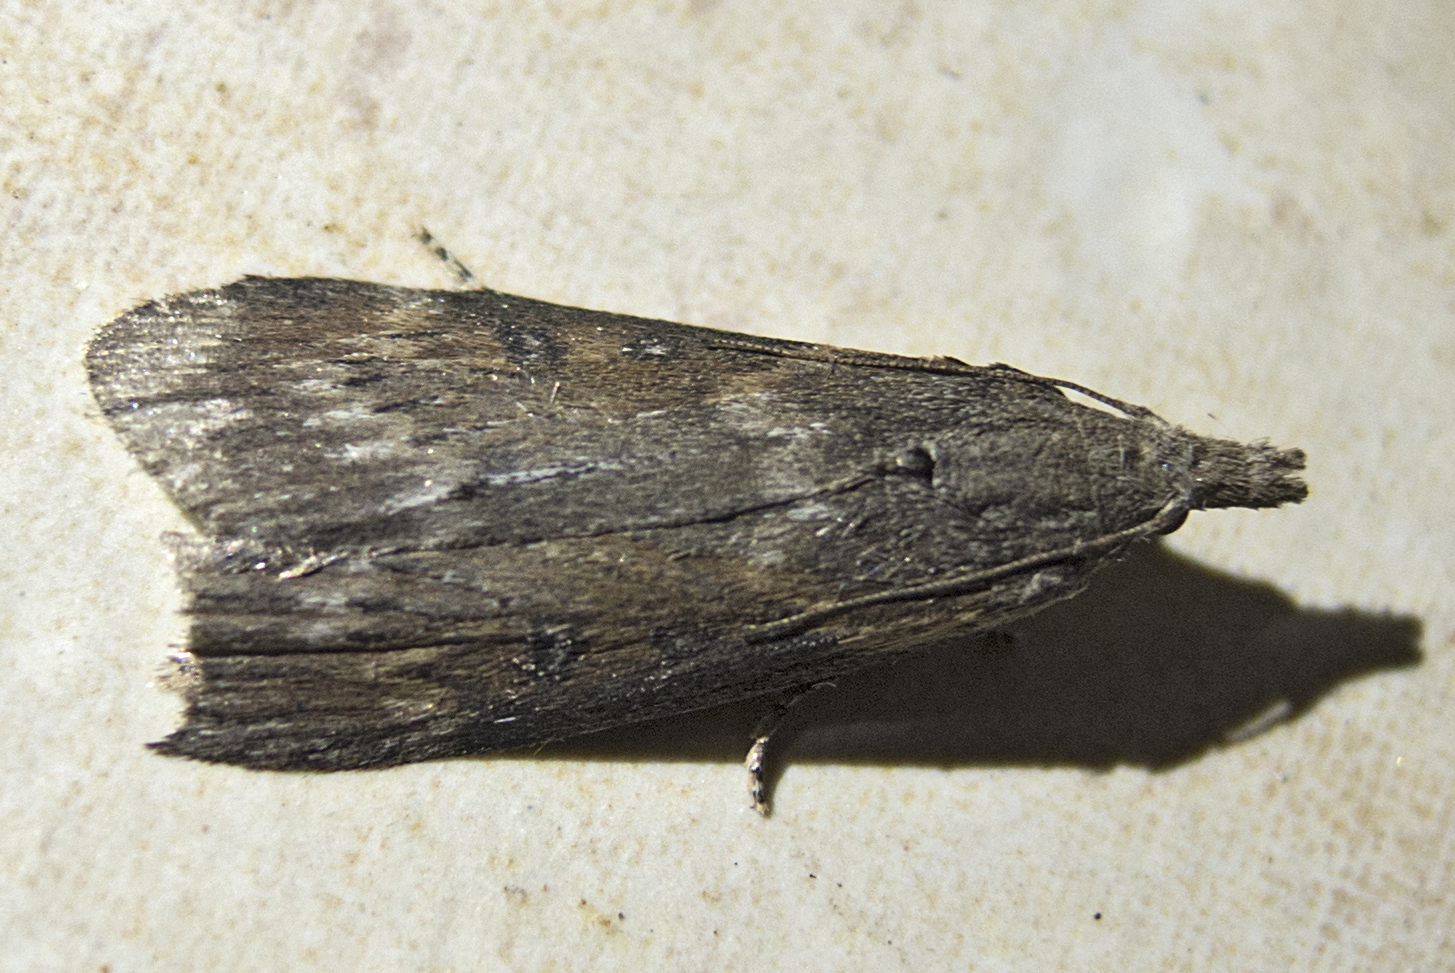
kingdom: Animalia
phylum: Arthropoda
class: Insecta
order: Lepidoptera
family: Pyralidae
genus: Lamoria
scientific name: Lamoria anella
